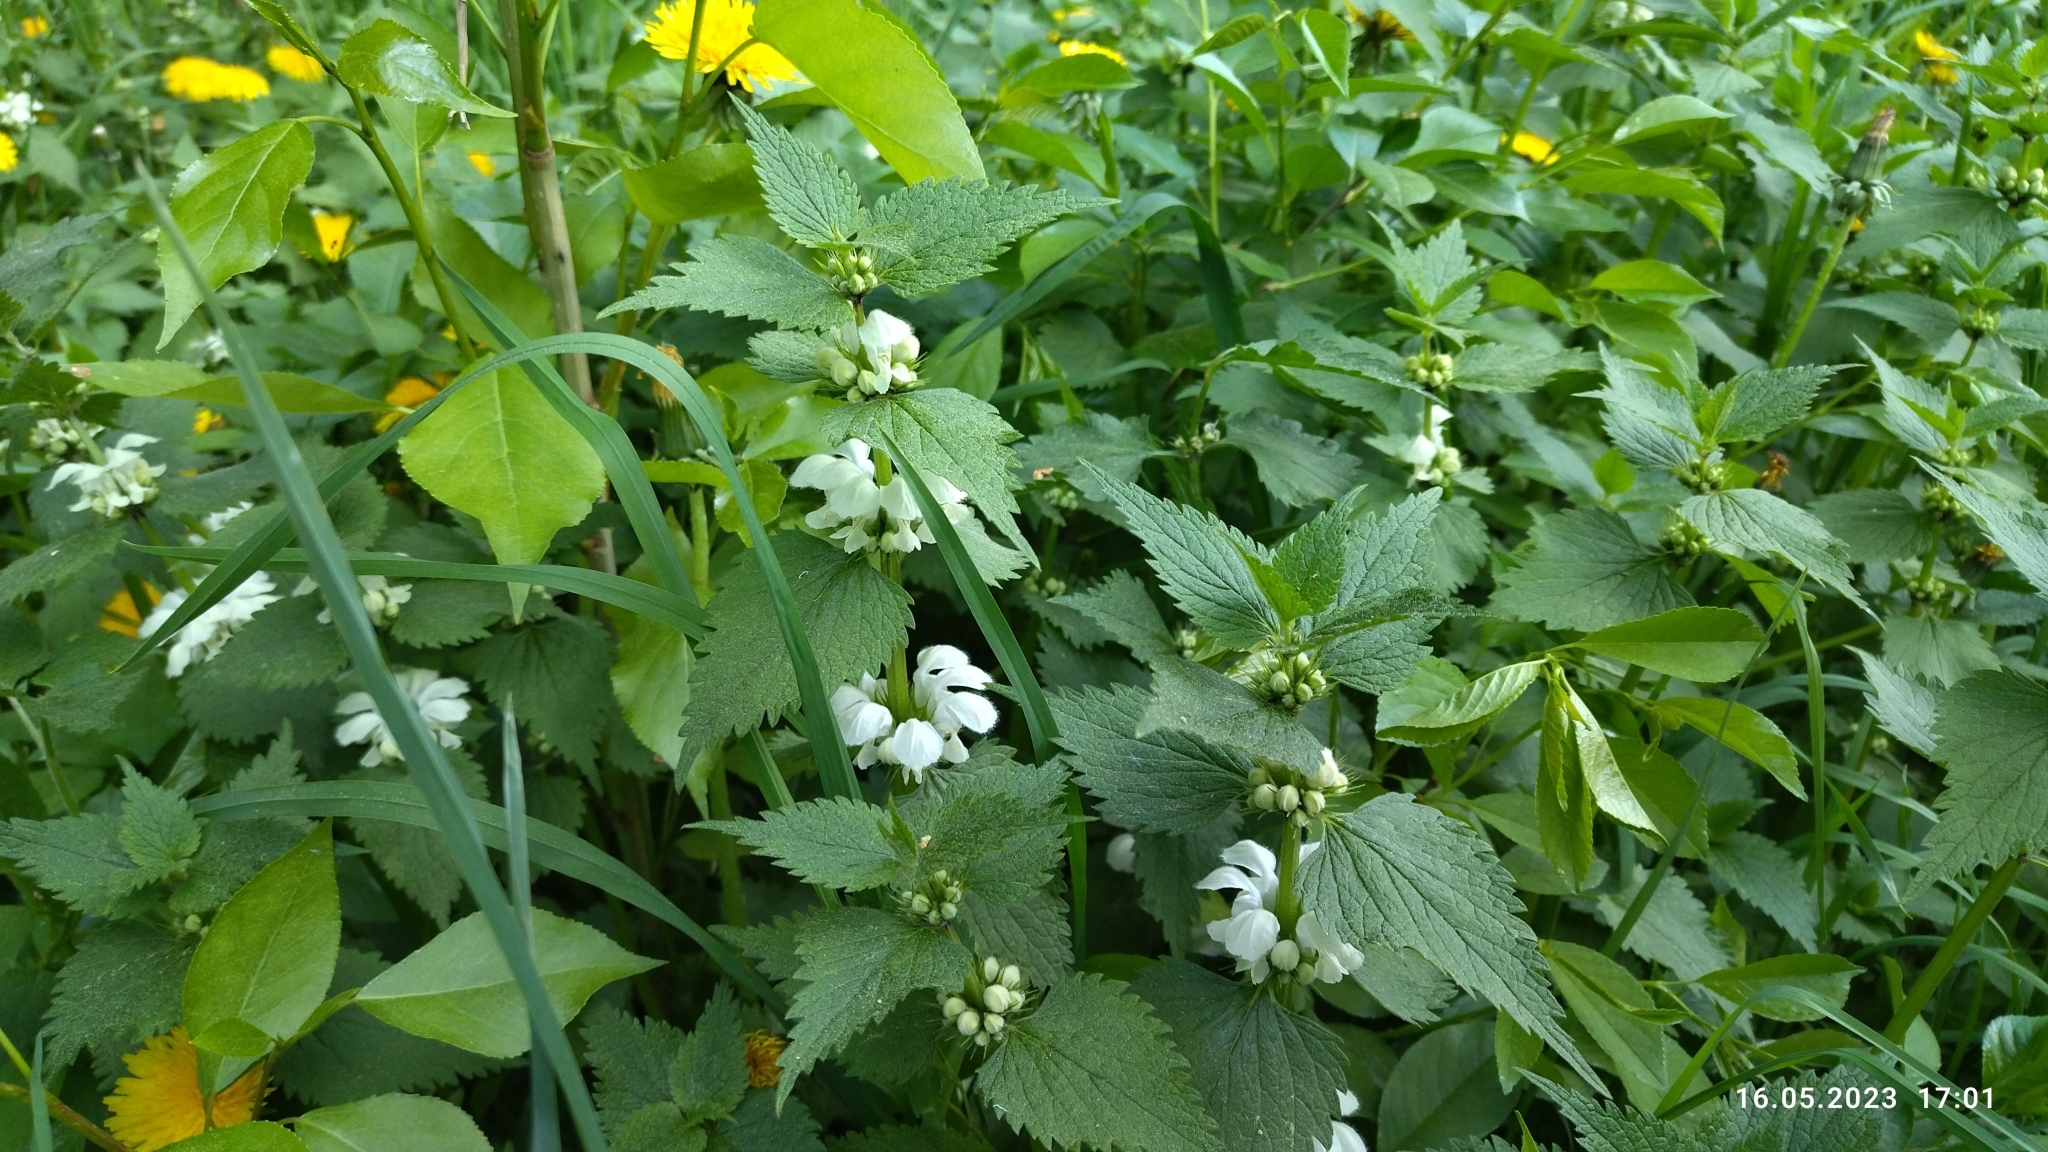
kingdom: Plantae
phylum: Tracheophyta
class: Magnoliopsida
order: Lamiales
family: Lamiaceae
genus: Lamium
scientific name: Lamium album
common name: White dead-nettle
